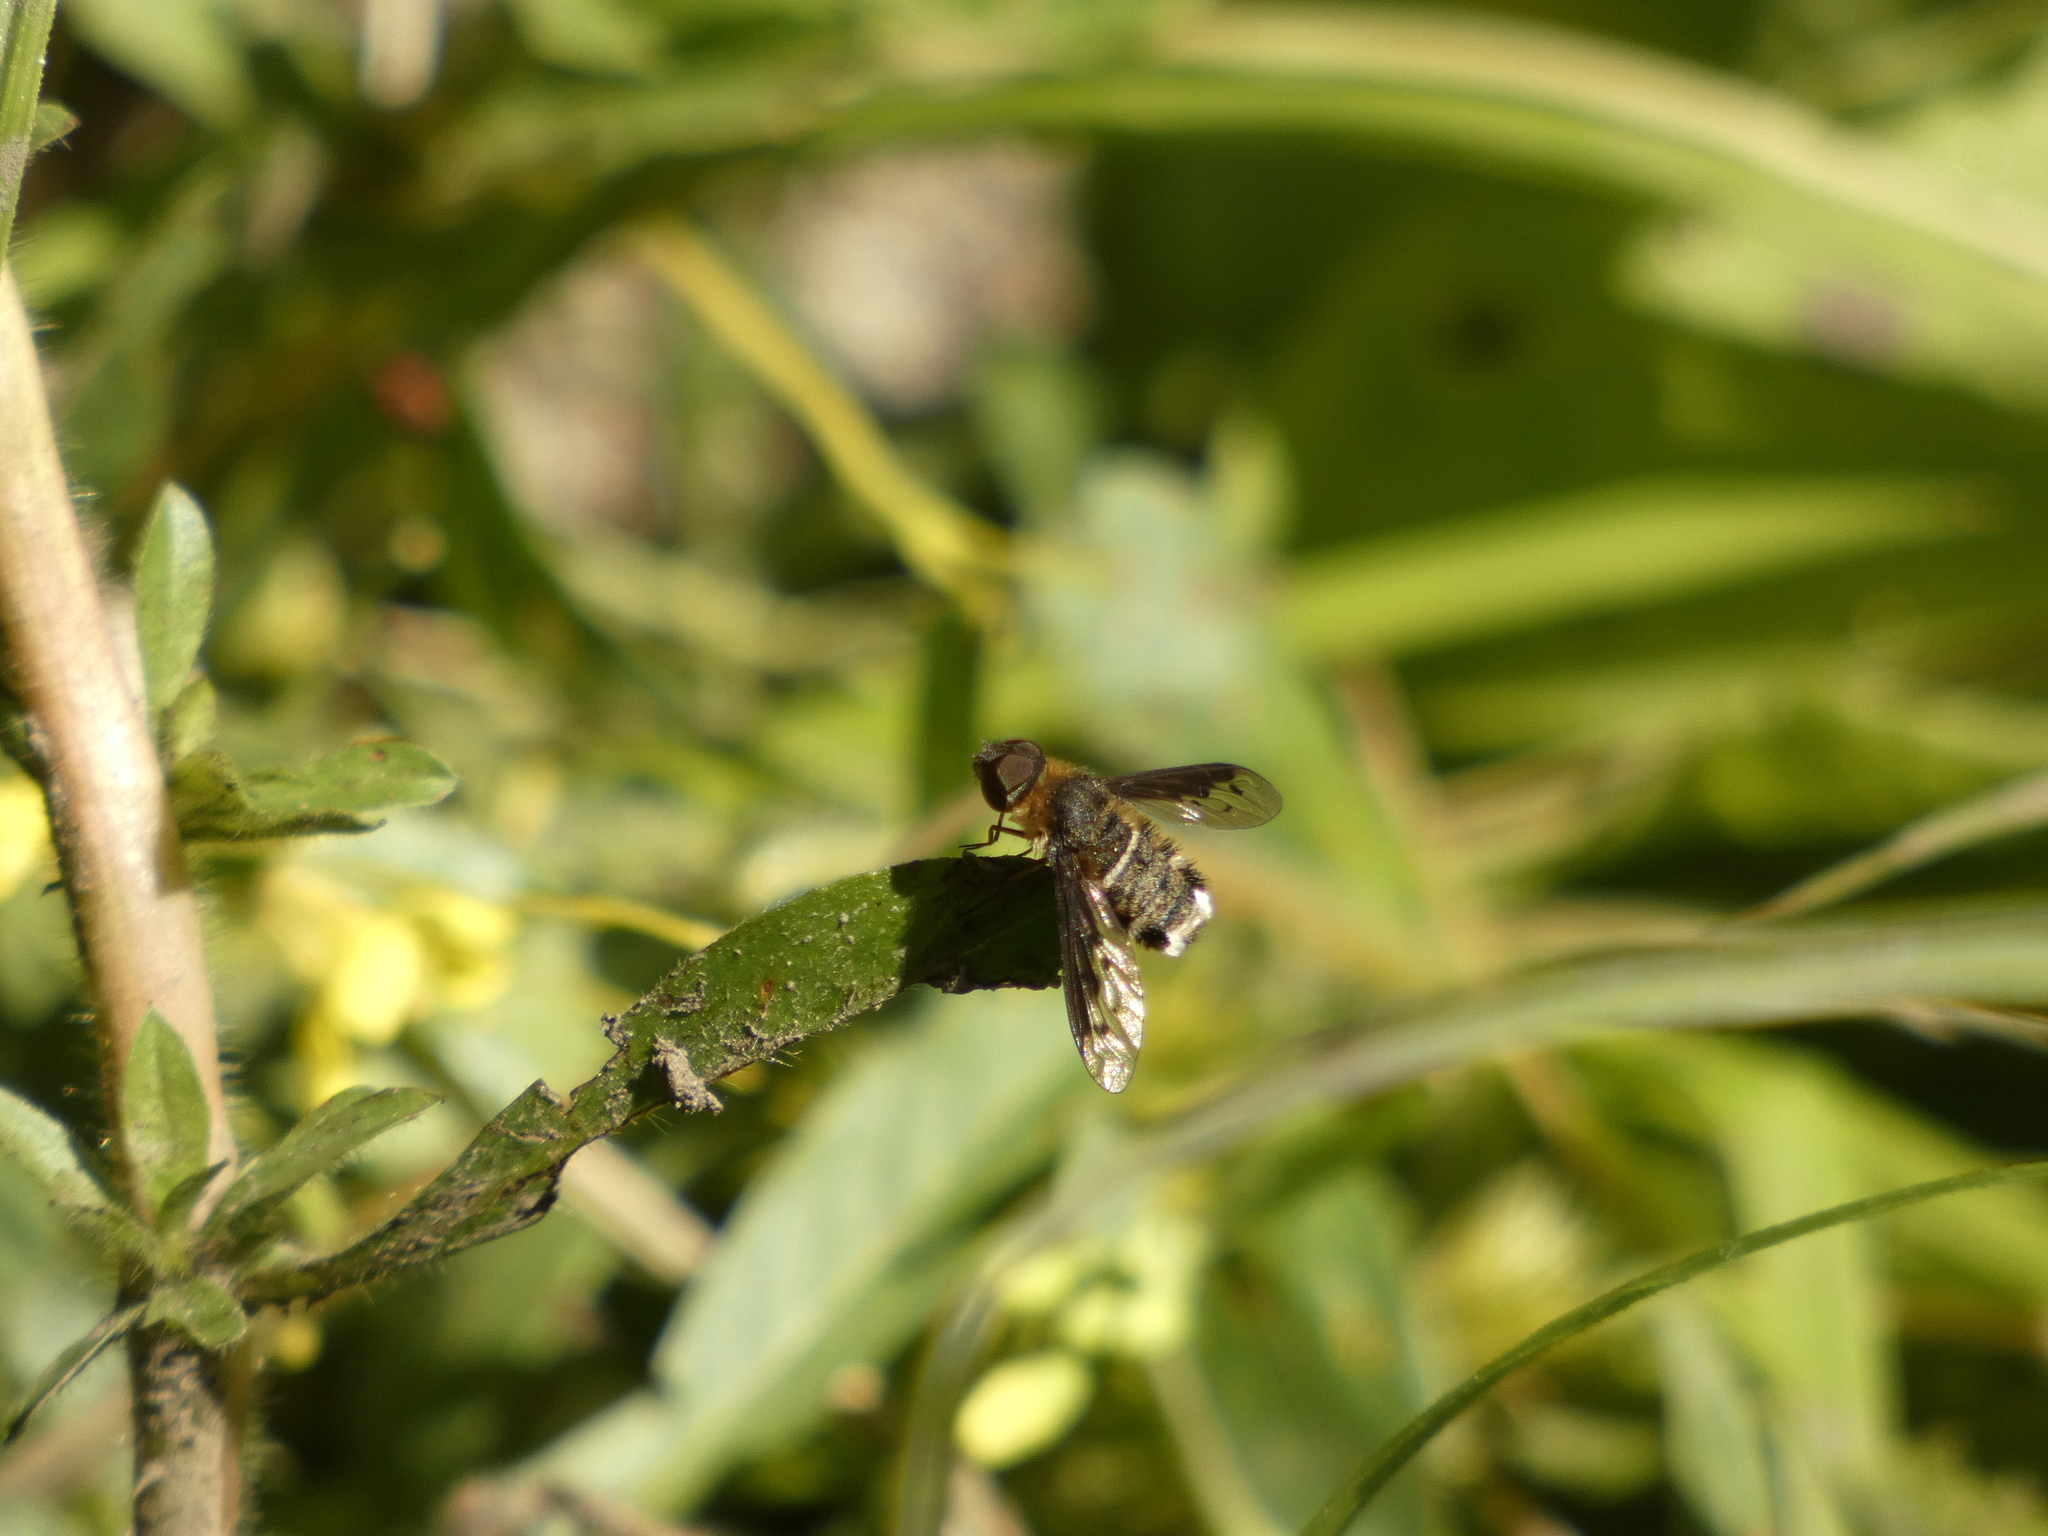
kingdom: Animalia
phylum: Arthropoda
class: Insecta
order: Diptera
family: Bombyliidae
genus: Chrysanthrax
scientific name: Chrysanthrax semilugens
